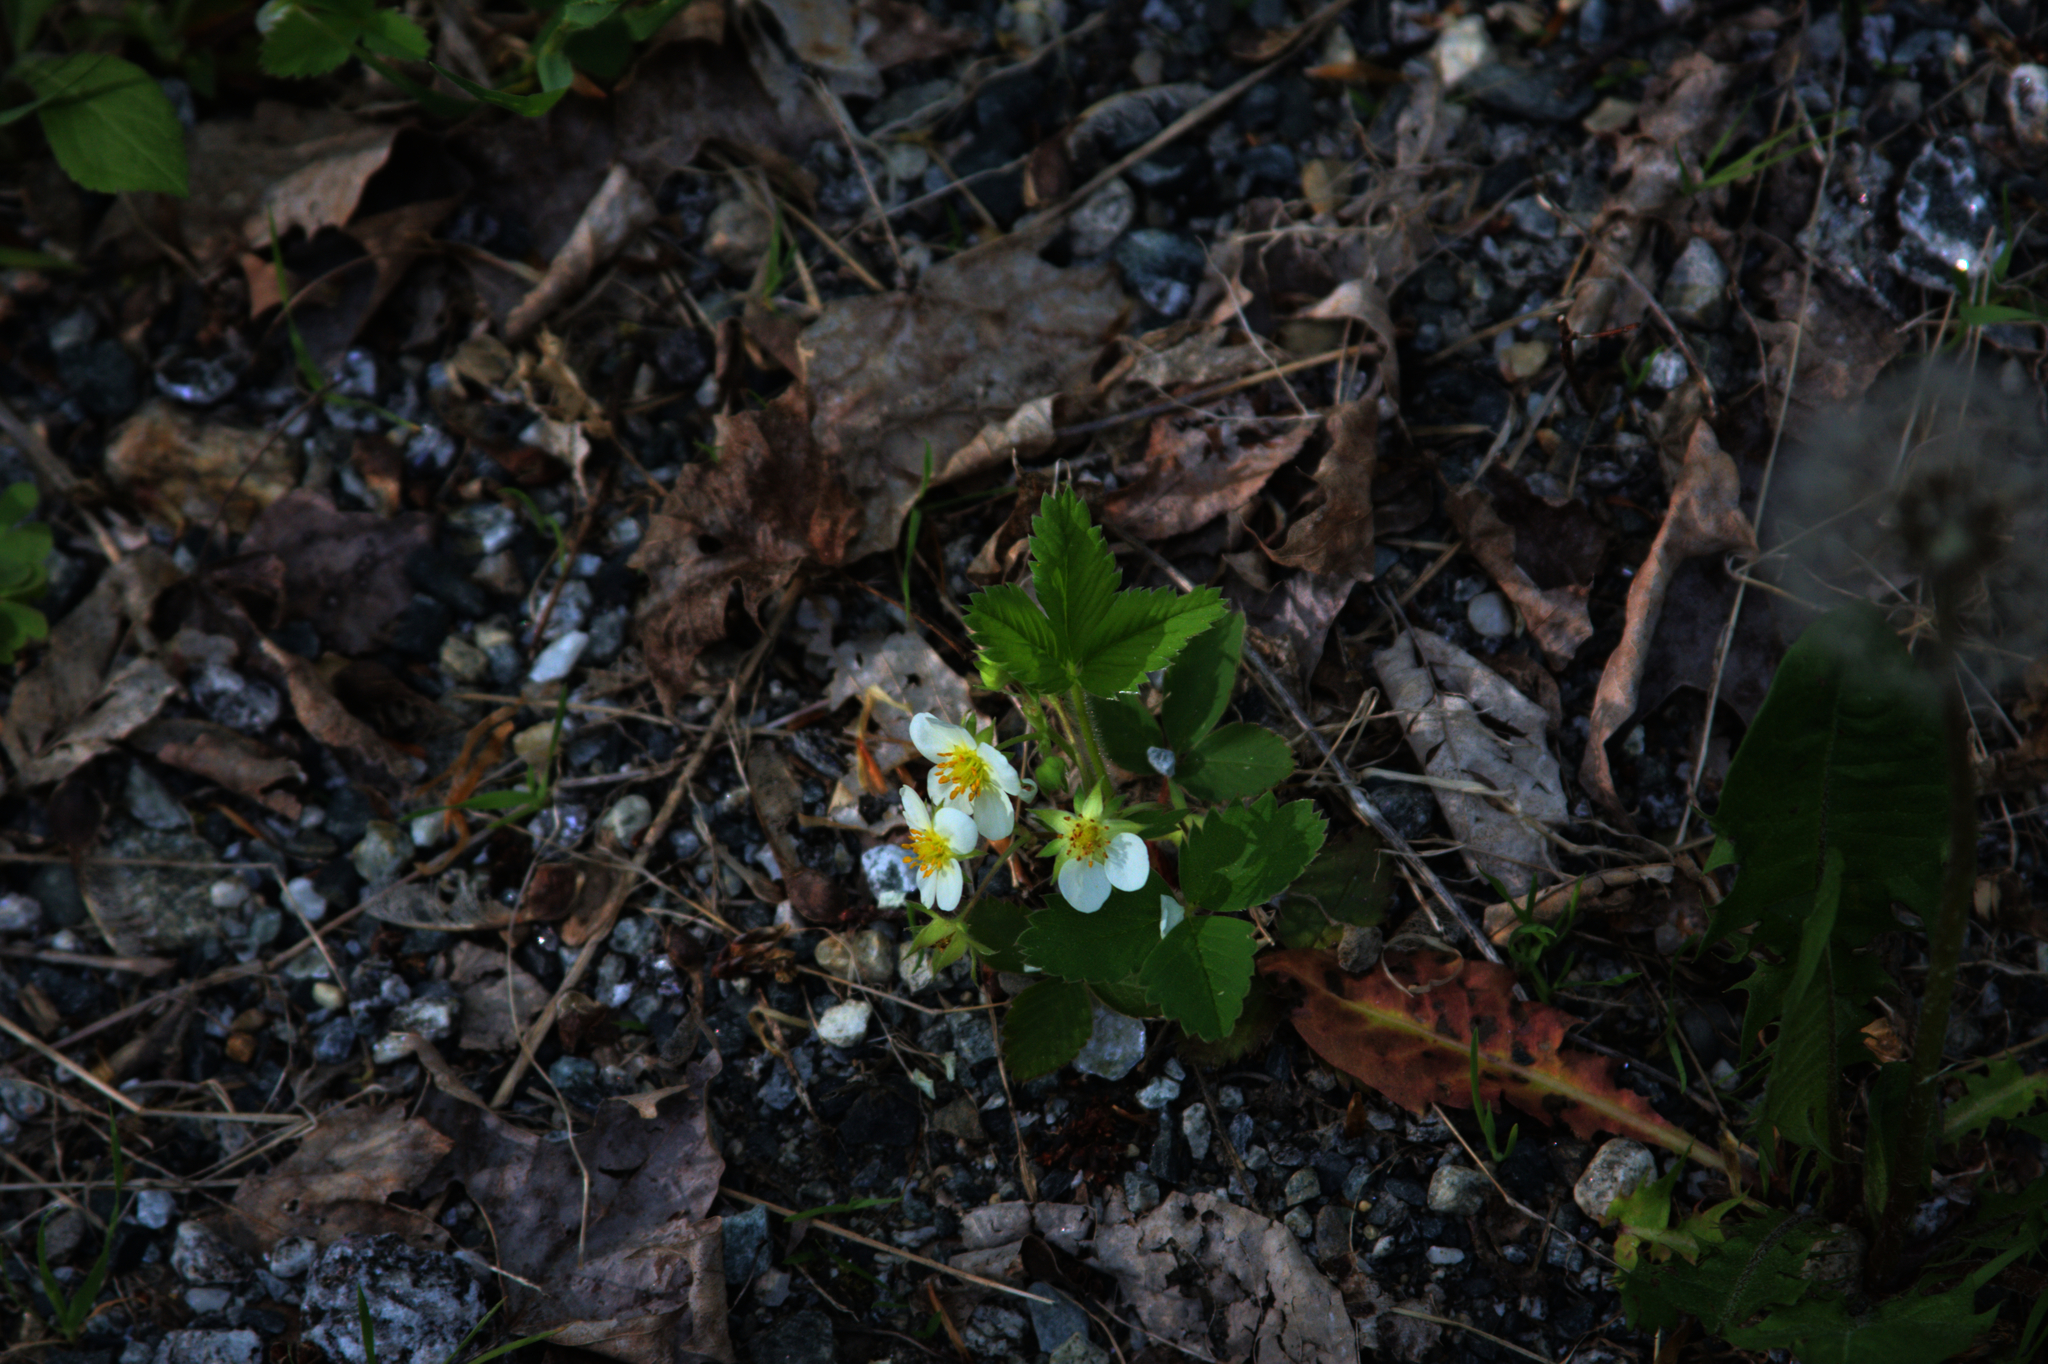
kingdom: Plantae
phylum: Tracheophyta
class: Magnoliopsida
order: Asterales
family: Asteraceae
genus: Taraxacum
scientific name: Taraxacum officinale
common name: Common dandelion
